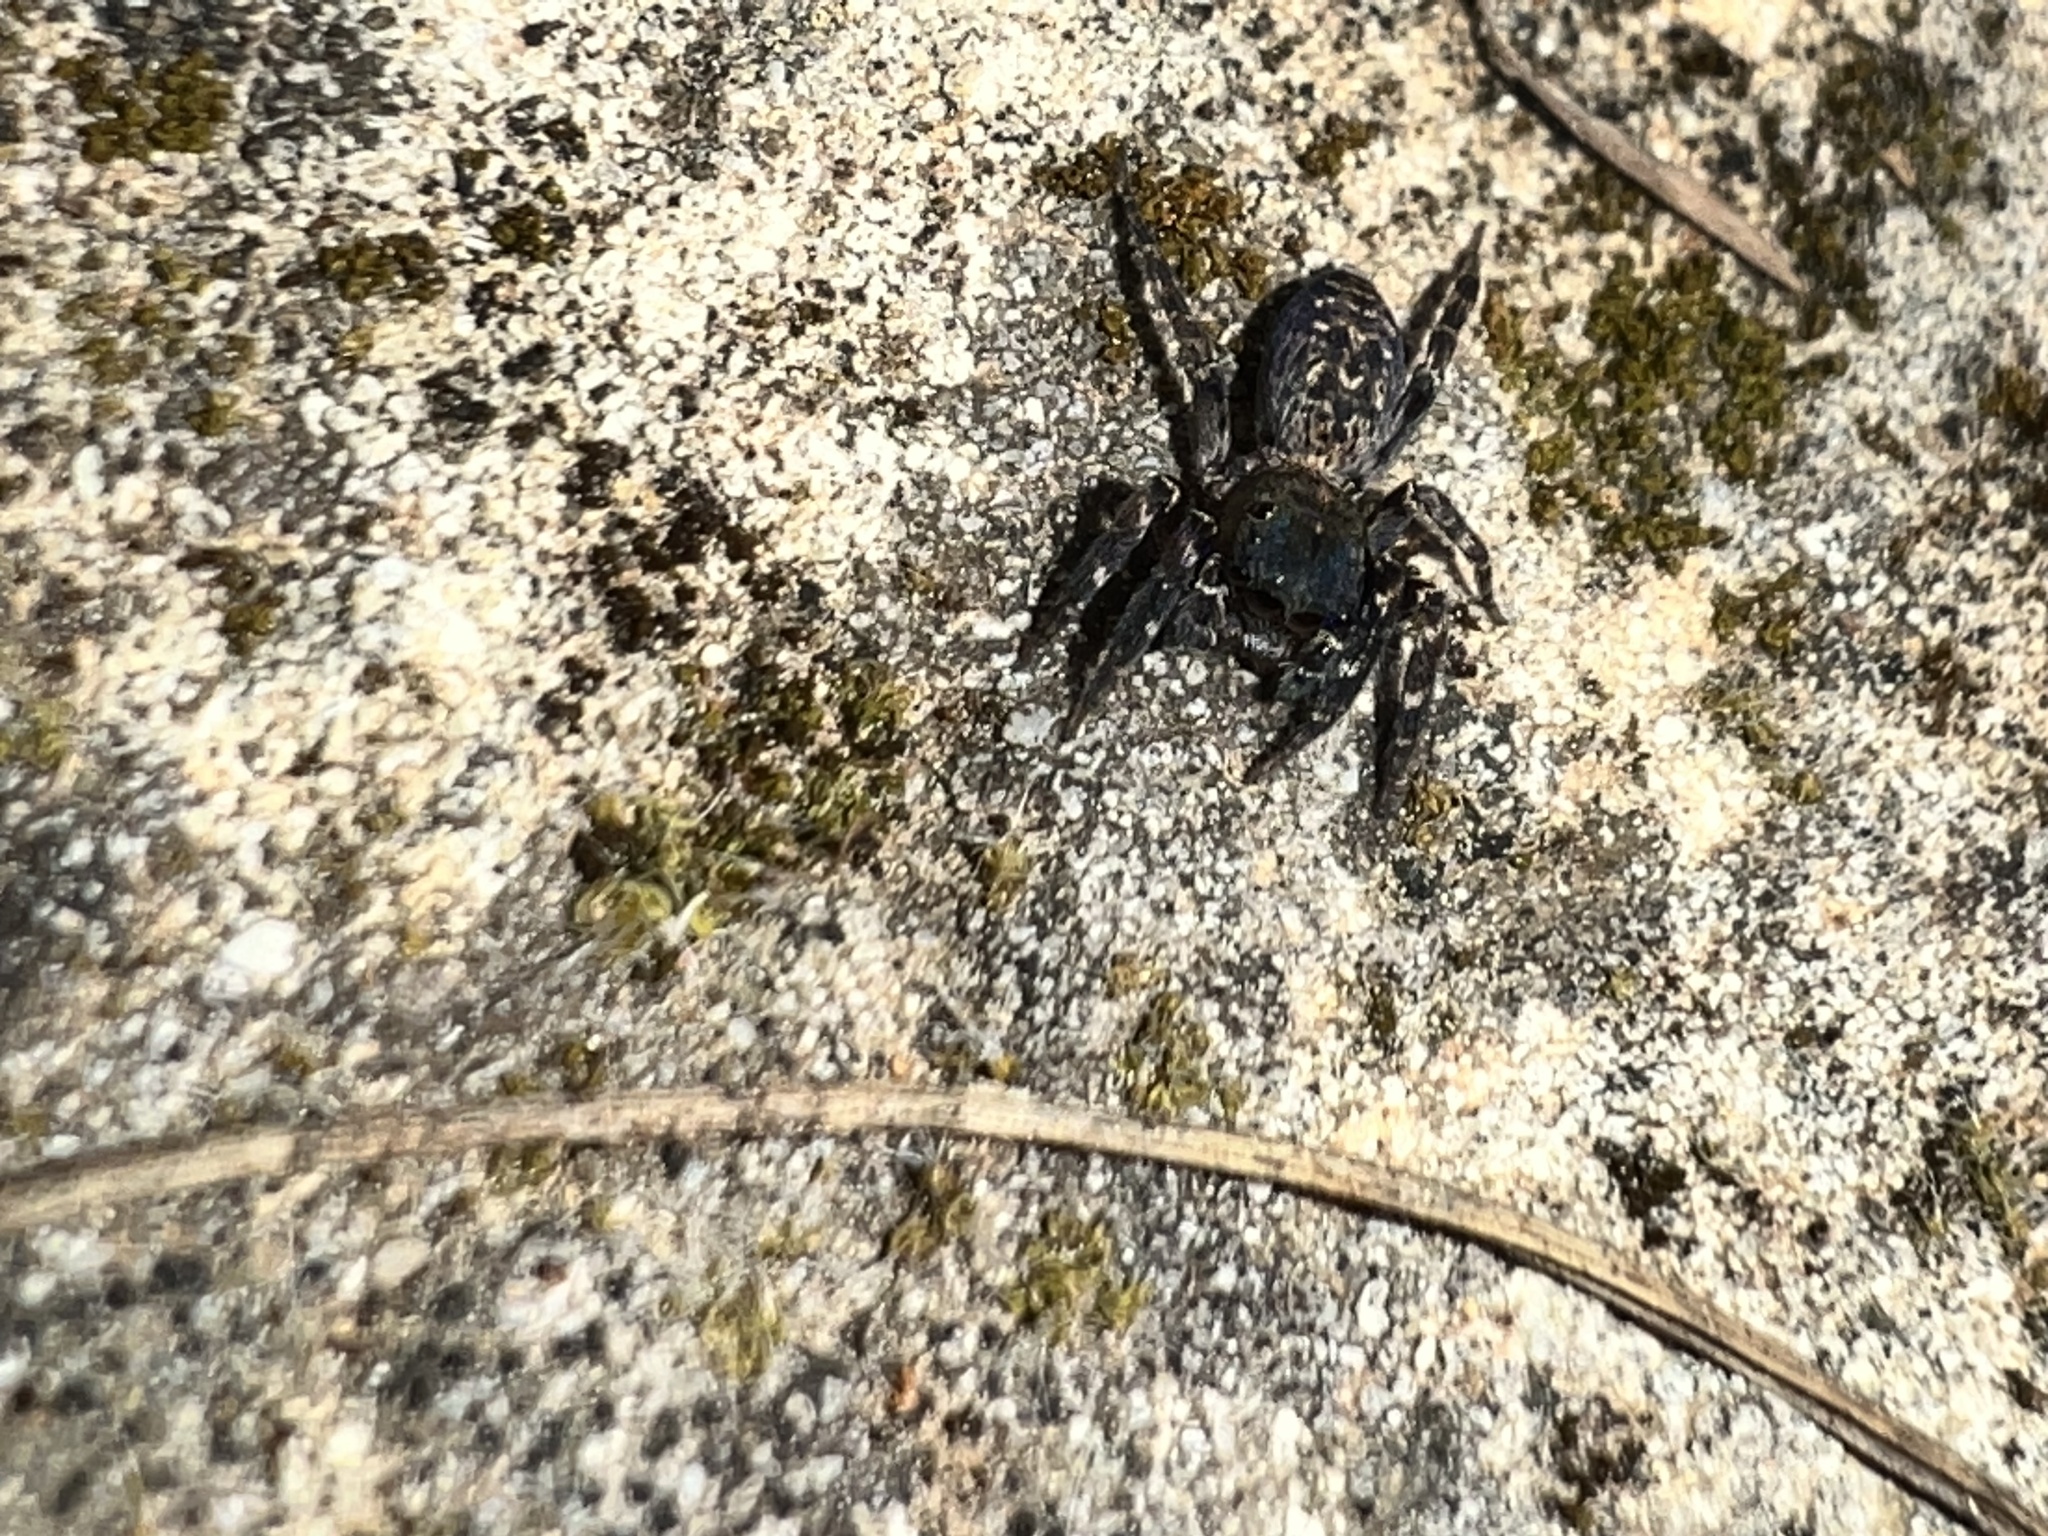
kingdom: Animalia
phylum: Arthropoda
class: Arachnida
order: Araneae
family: Salticidae
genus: Cyrba
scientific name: Cyrba algerina
